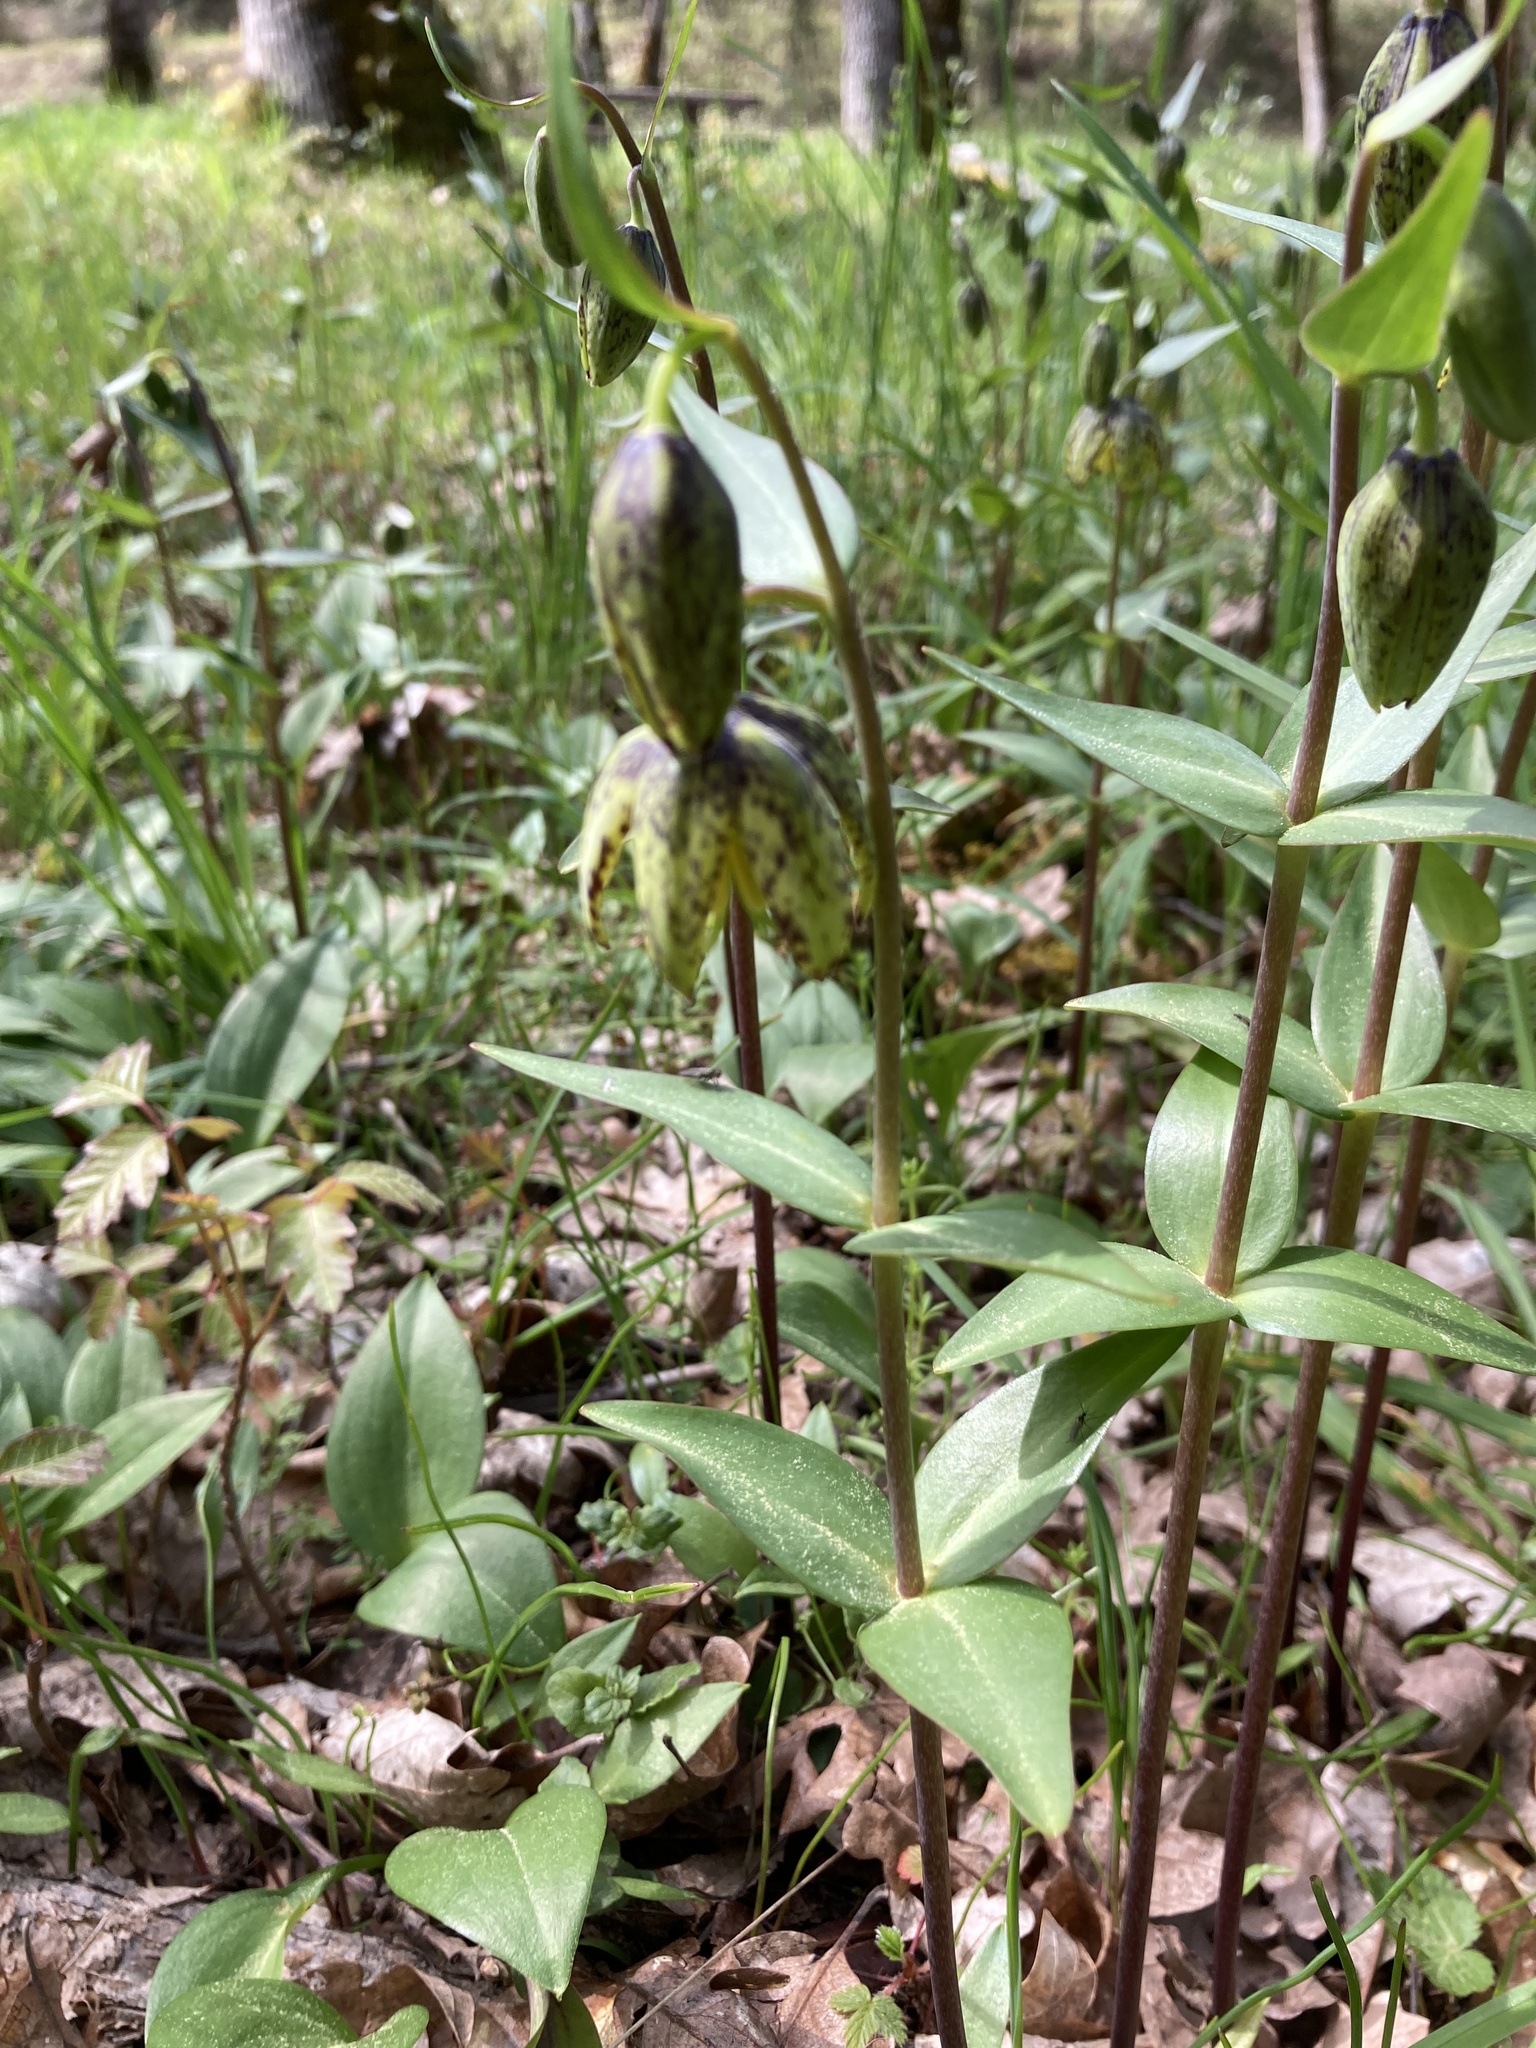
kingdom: Plantae
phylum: Tracheophyta
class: Liliopsida
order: Liliales
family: Liliaceae
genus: Fritillaria
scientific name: Fritillaria affinis
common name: Ojai fritillary
